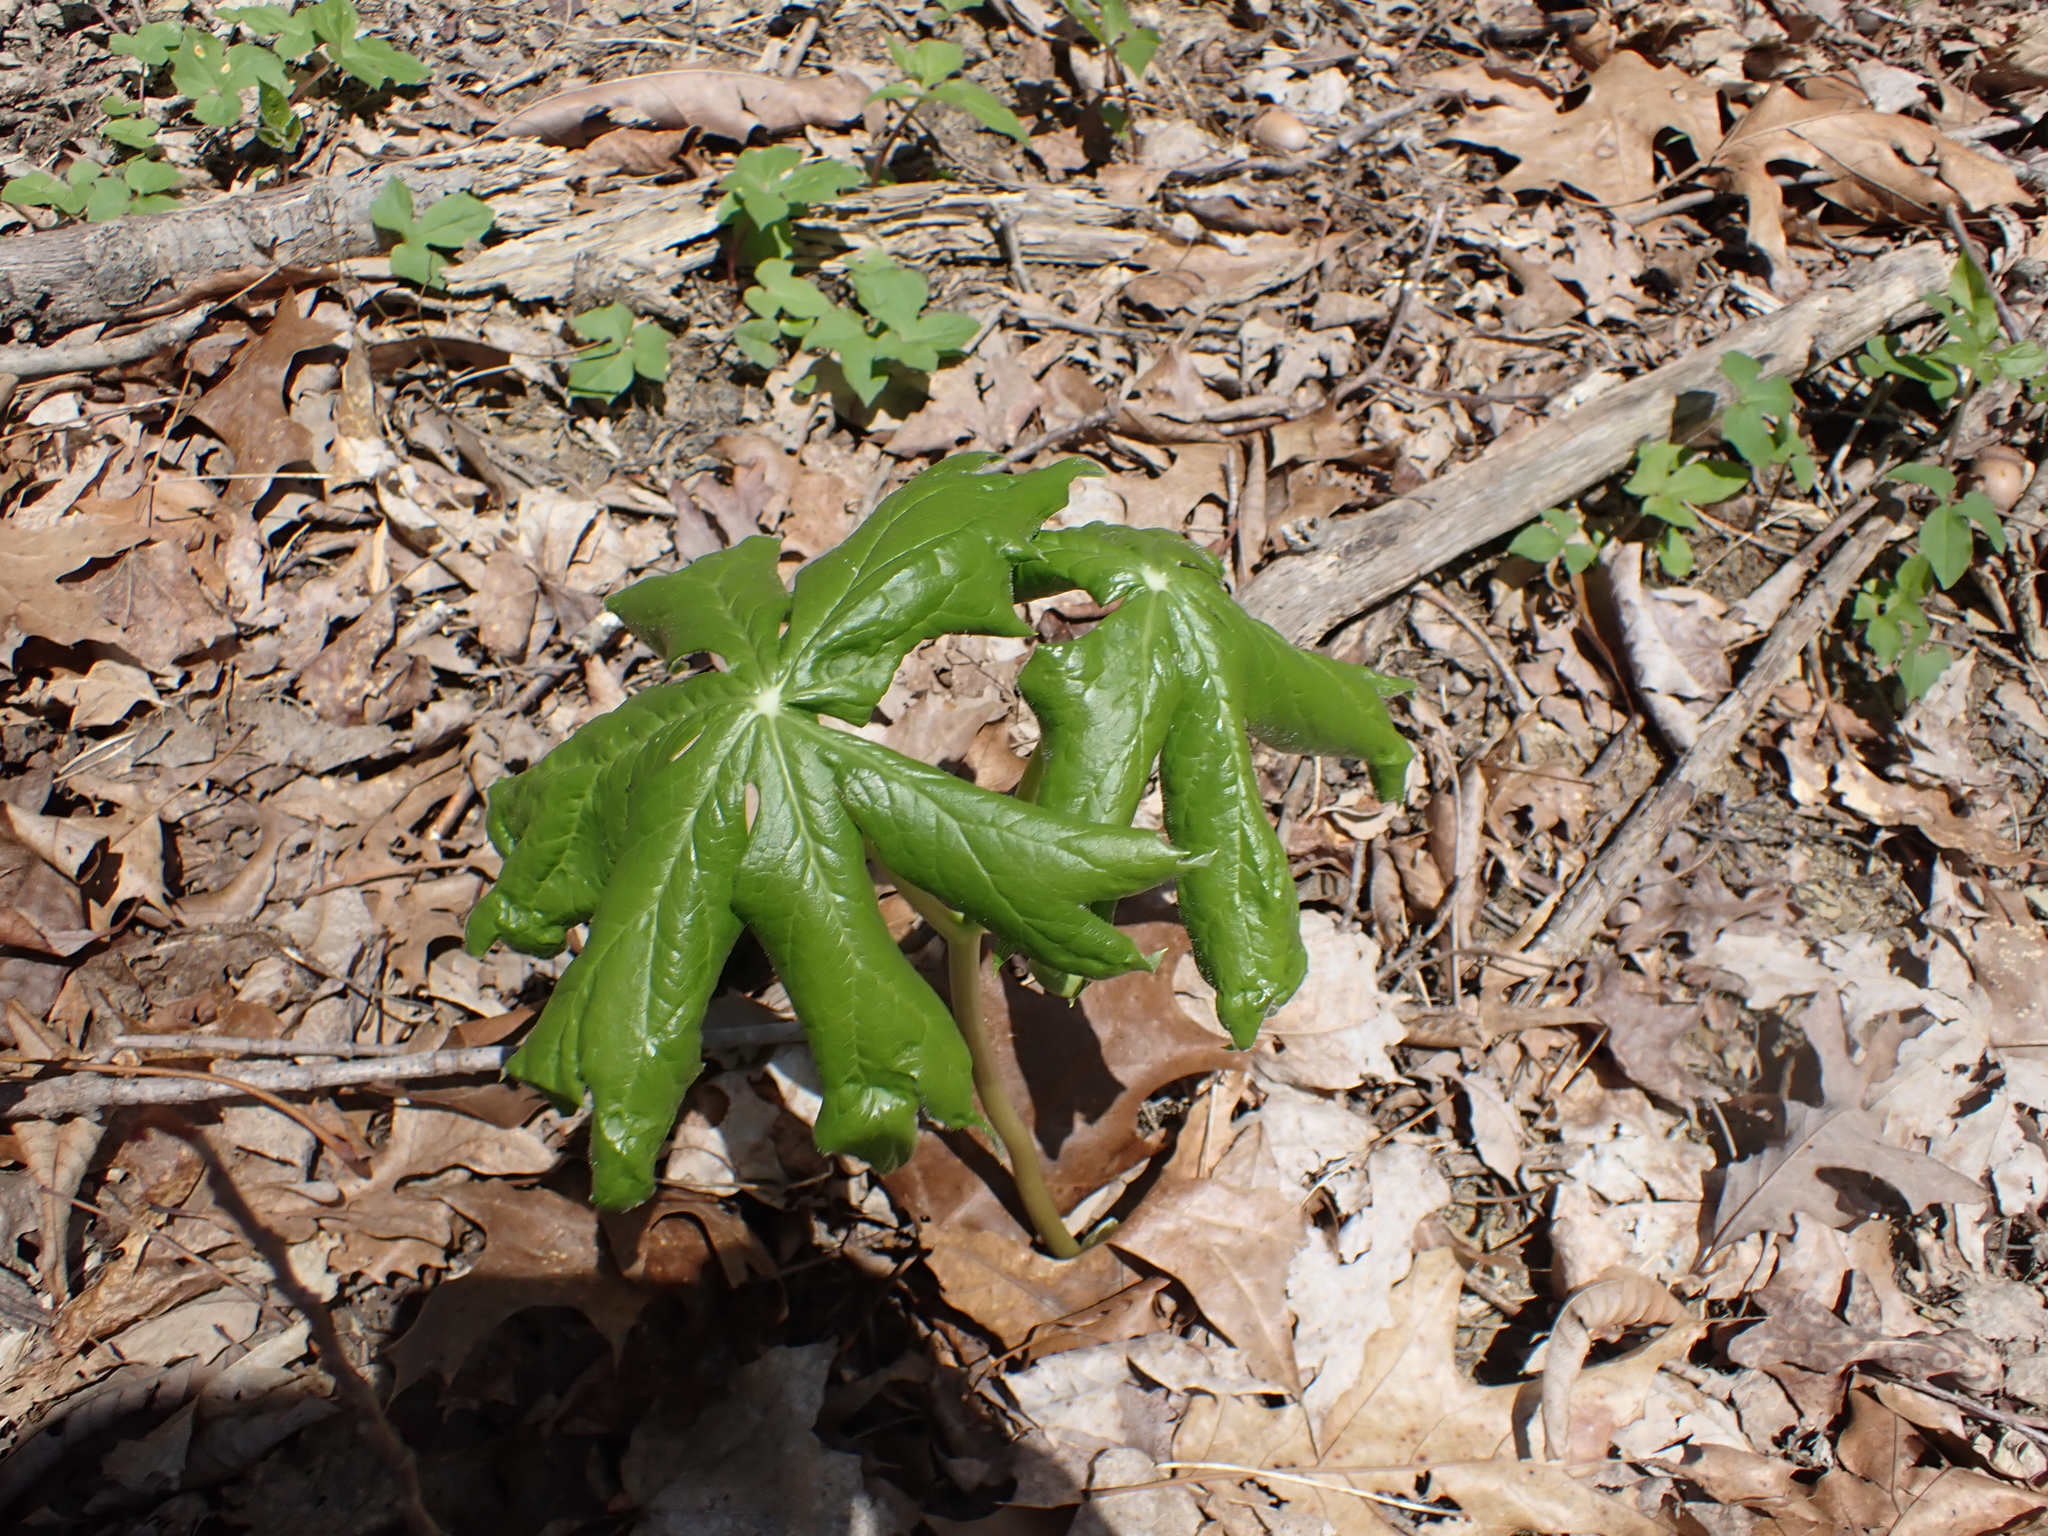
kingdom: Plantae
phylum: Tracheophyta
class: Magnoliopsida
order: Ranunculales
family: Berberidaceae
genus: Podophyllum
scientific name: Podophyllum peltatum
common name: Wild mandrake
